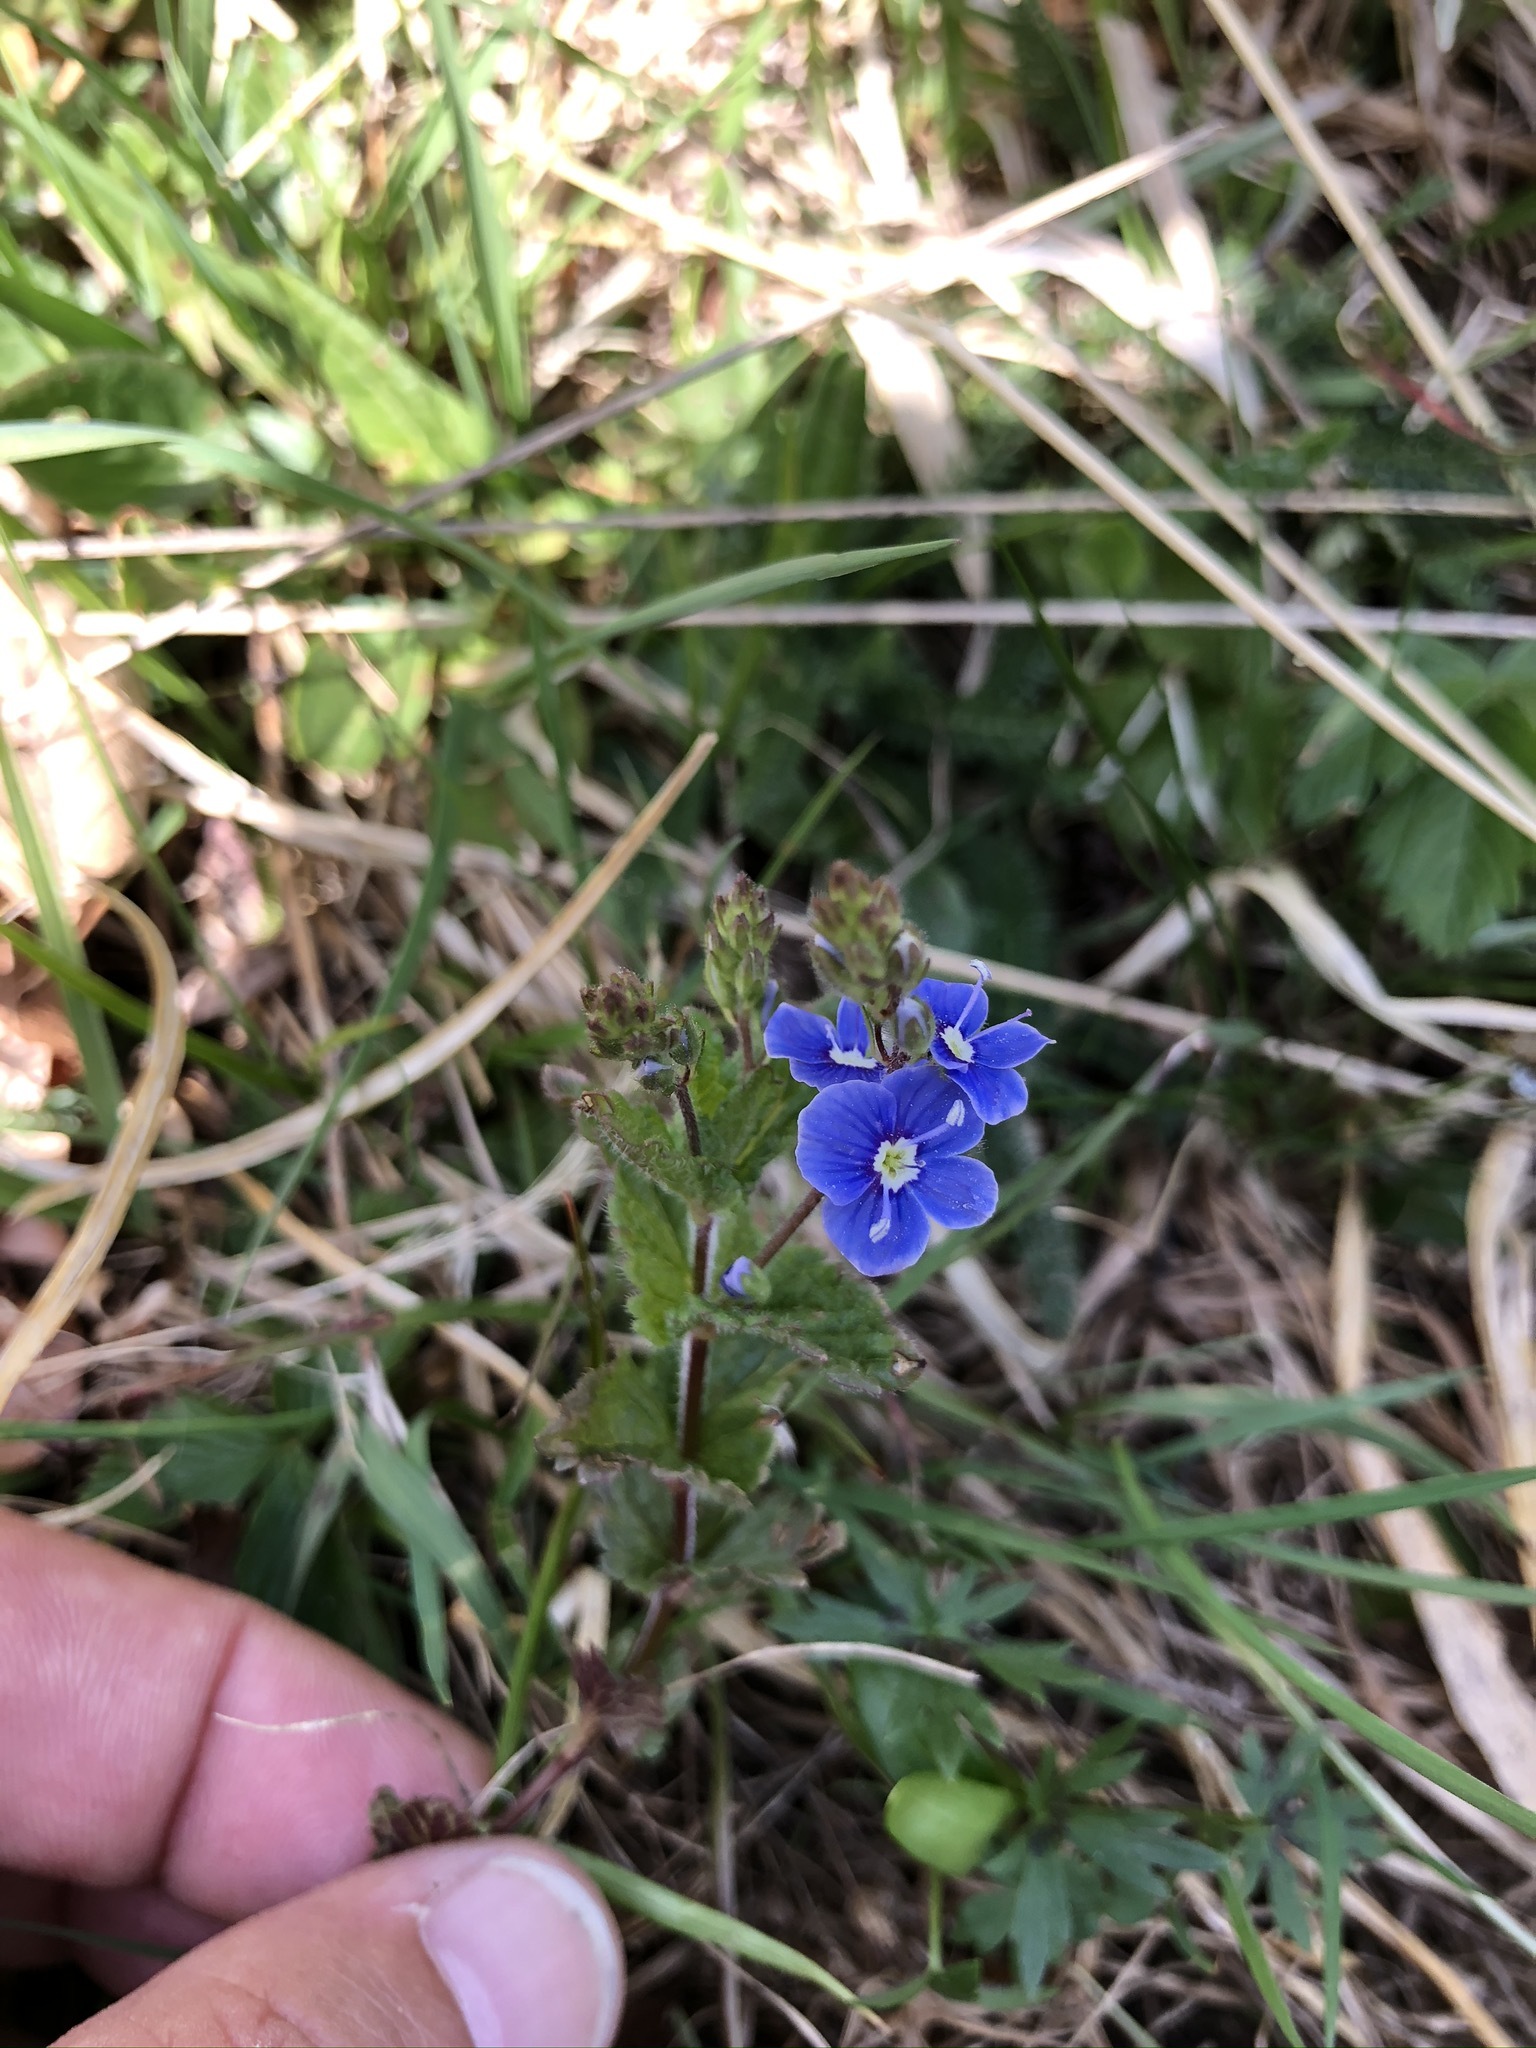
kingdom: Plantae
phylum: Tracheophyta
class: Magnoliopsida
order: Lamiales
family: Plantaginaceae
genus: Veronica
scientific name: Veronica chamaedrys
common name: Germander speedwell
